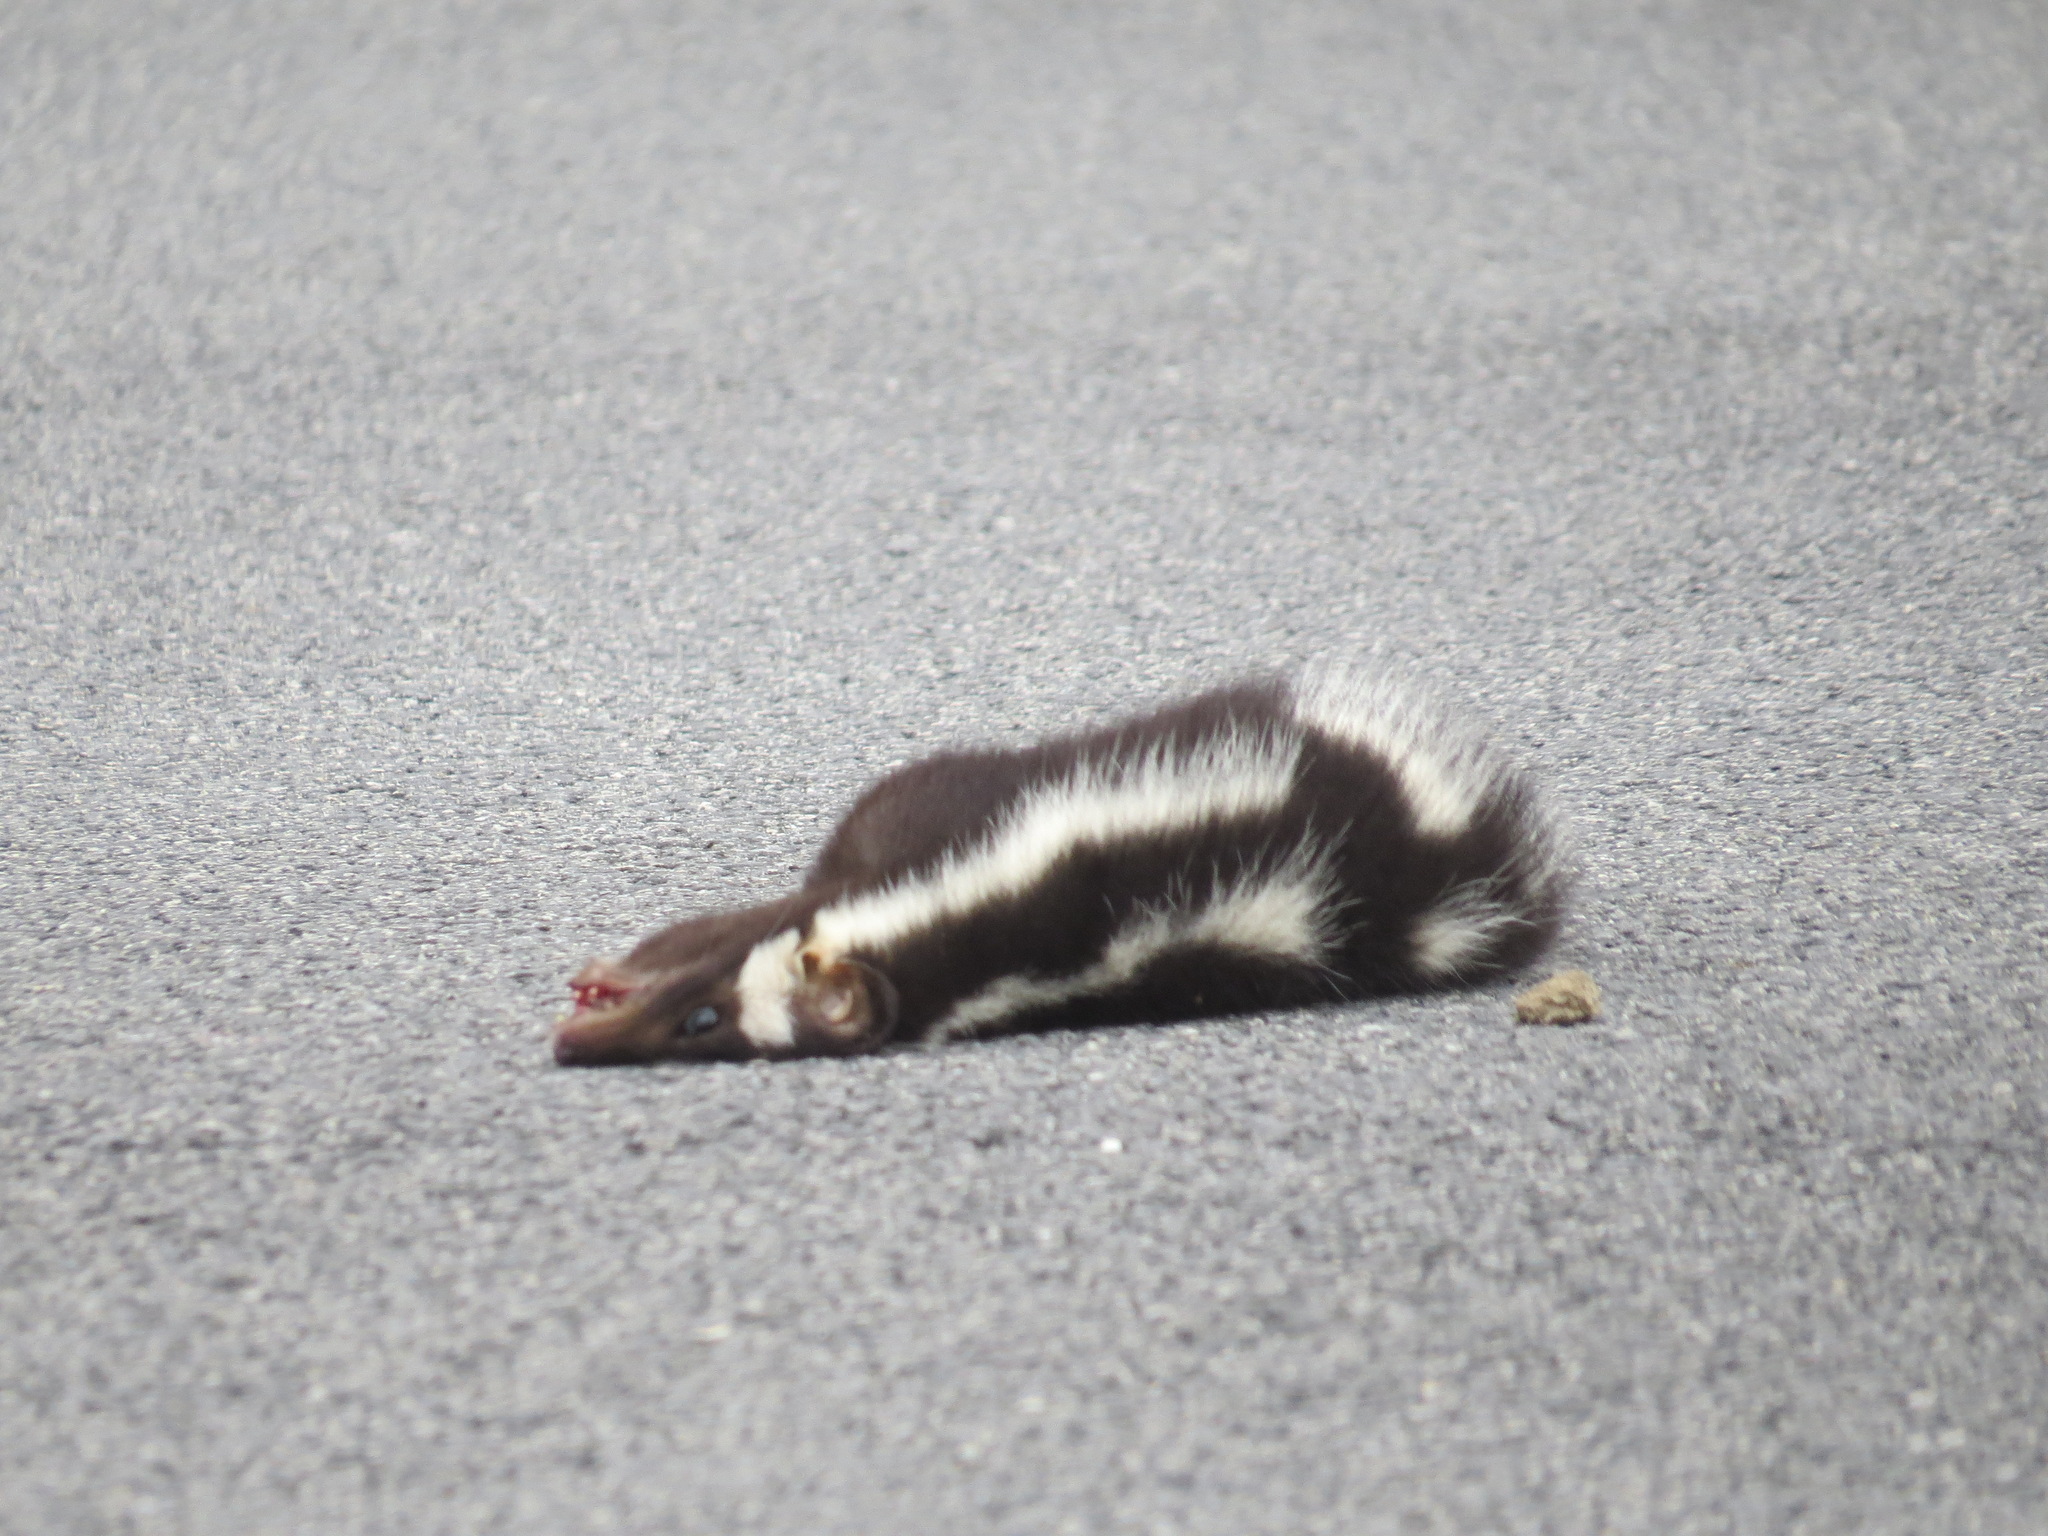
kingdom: Animalia
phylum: Chordata
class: Mammalia
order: Carnivora
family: Mephitidae
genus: Spilogale
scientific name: Spilogale gracilis
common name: Western spotted skunk
